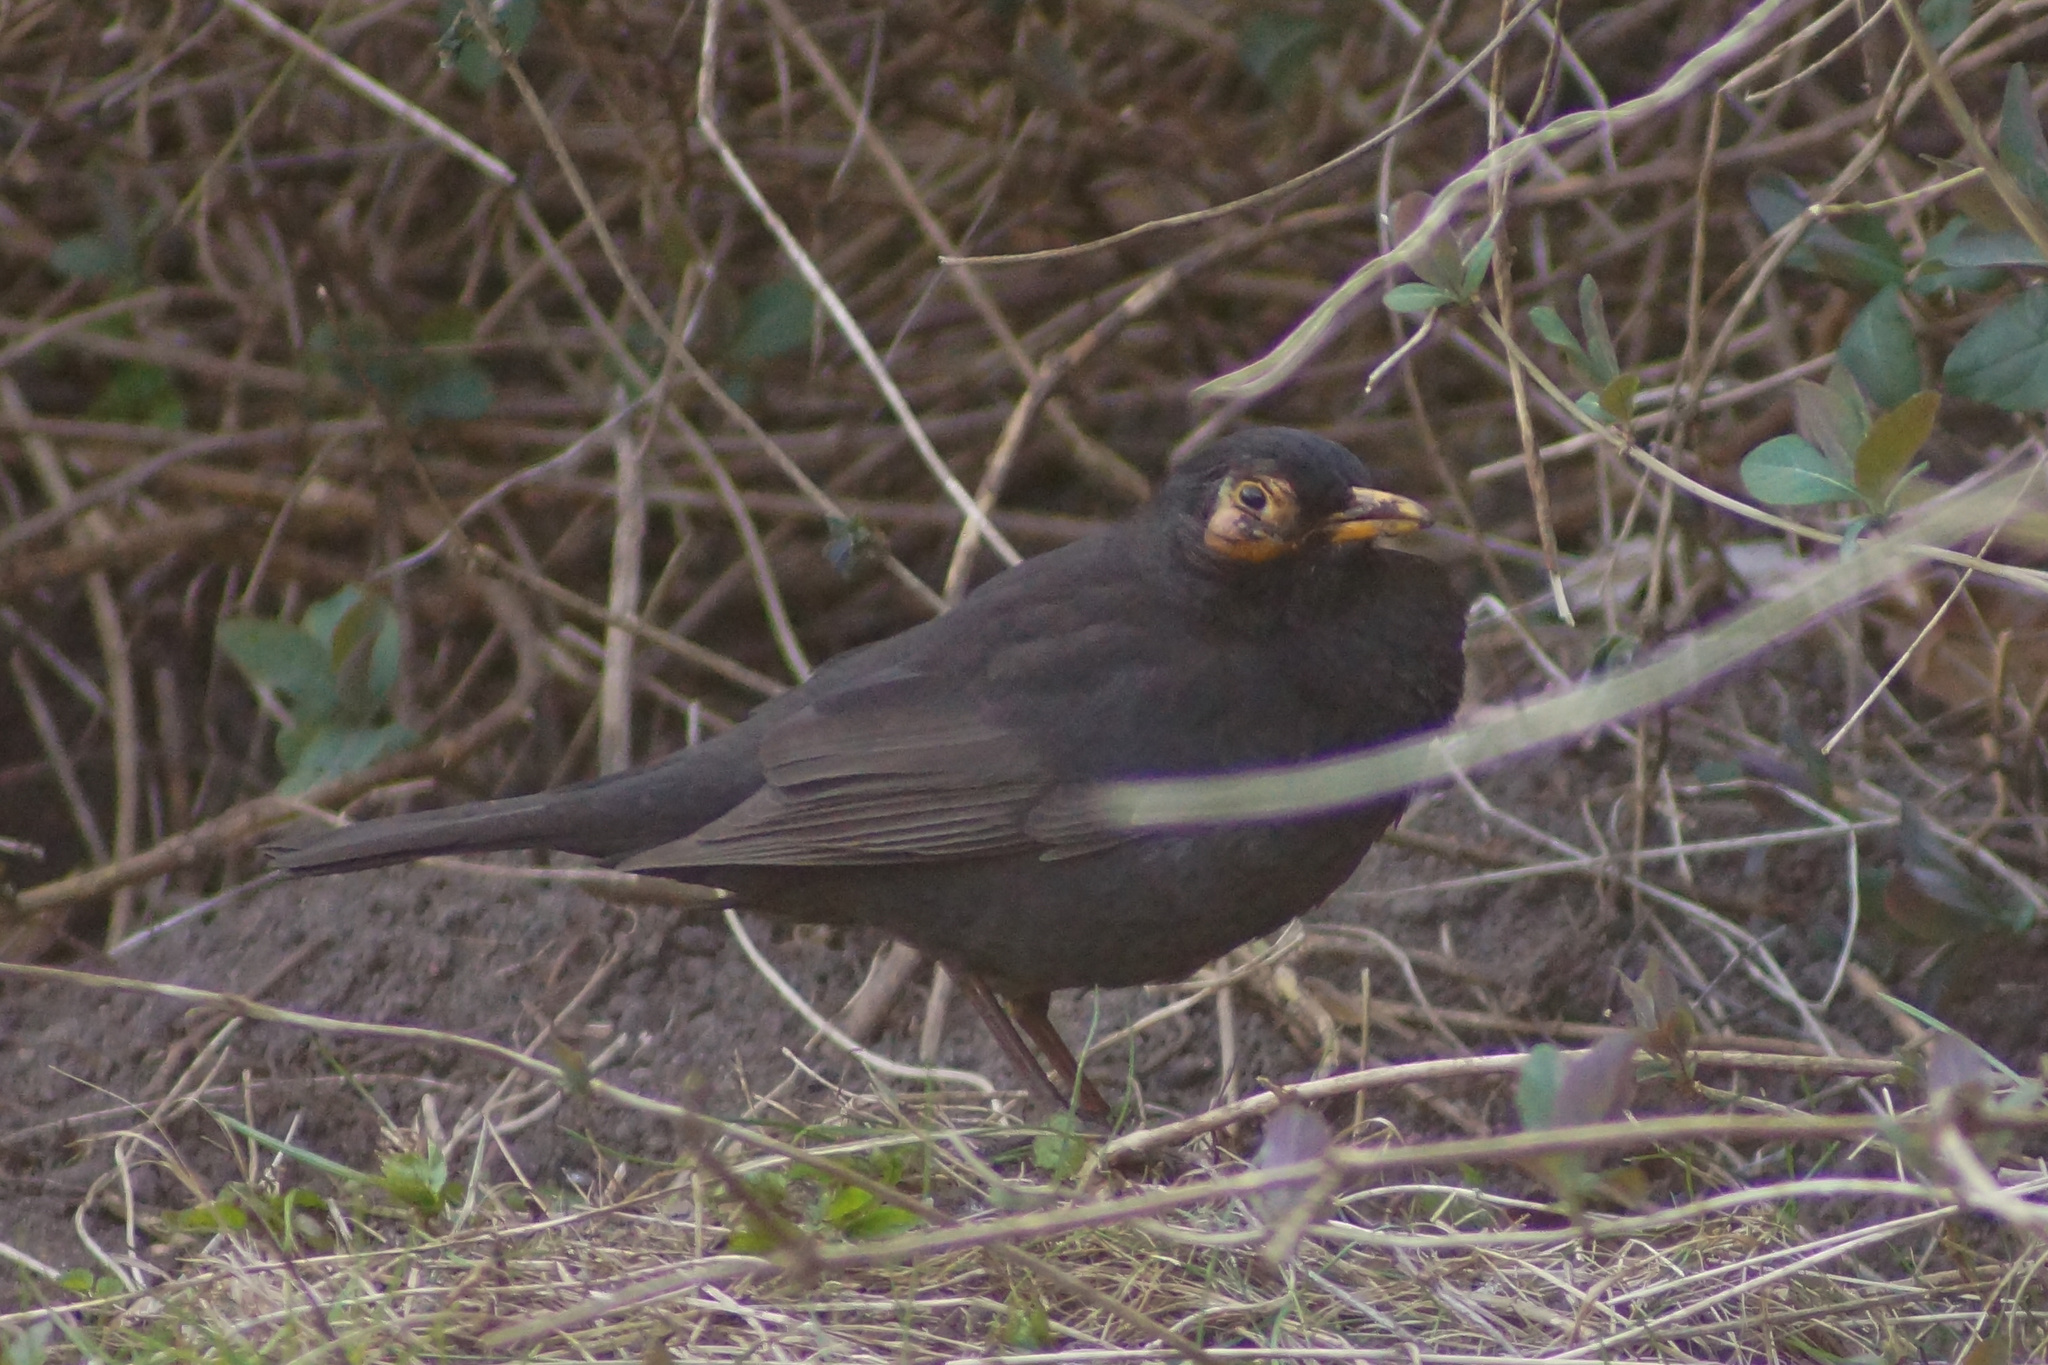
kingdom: Animalia
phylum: Chordata
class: Aves
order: Passeriformes
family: Turdidae
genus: Turdus
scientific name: Turdus merula
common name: Common blackbird
